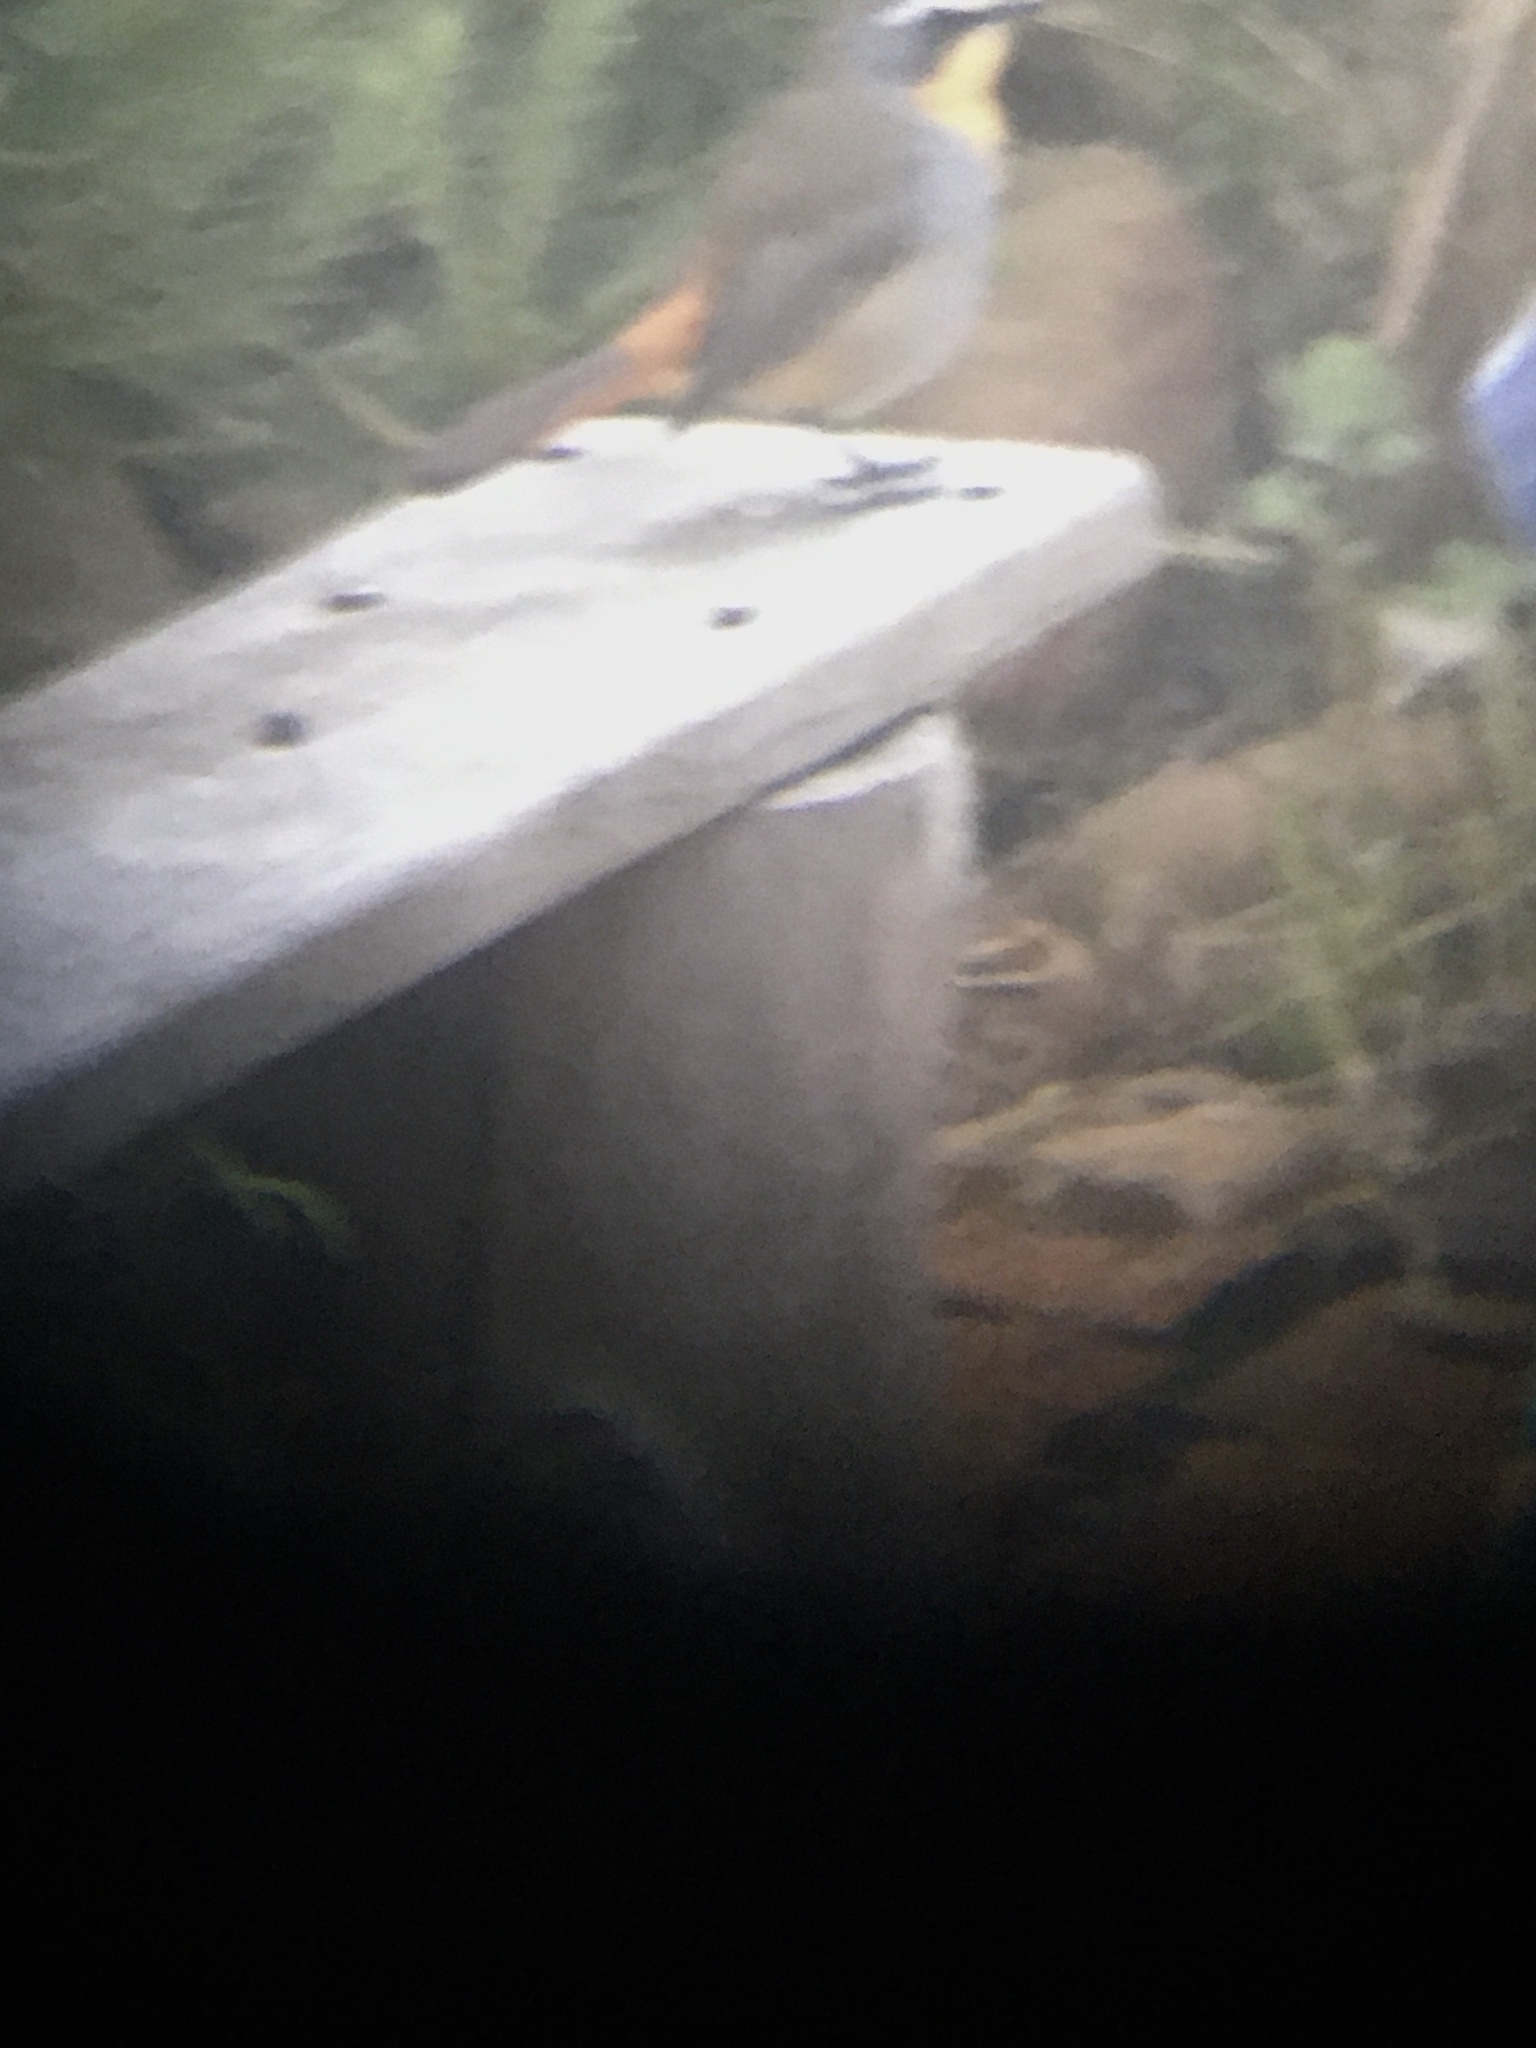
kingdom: Animalia
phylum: Chordata
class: Aves
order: Passeriformes
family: Muscicapidae
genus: Cossypha
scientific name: Cossypha caffra
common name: Cape robin-chat
